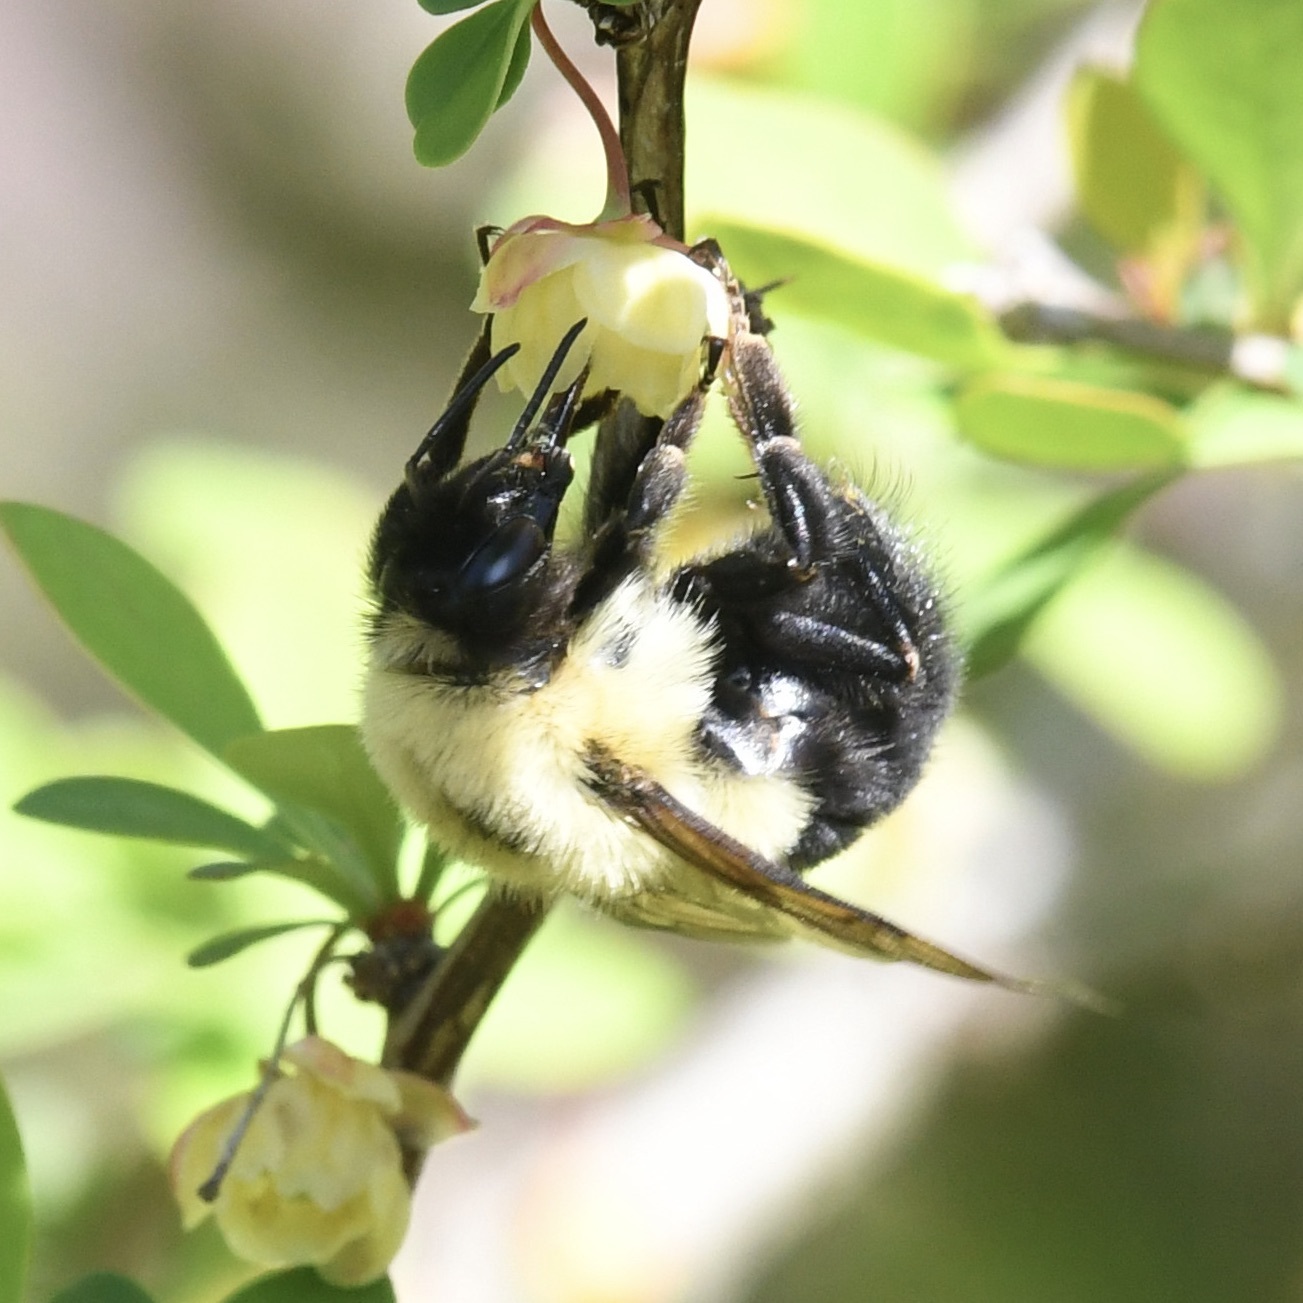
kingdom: Animalia
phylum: Arthropoda
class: Insecta
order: Hymenoptera
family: Apidae
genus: Bombus
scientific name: Bombus bimaculatus
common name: Two-spotted bumble bee
